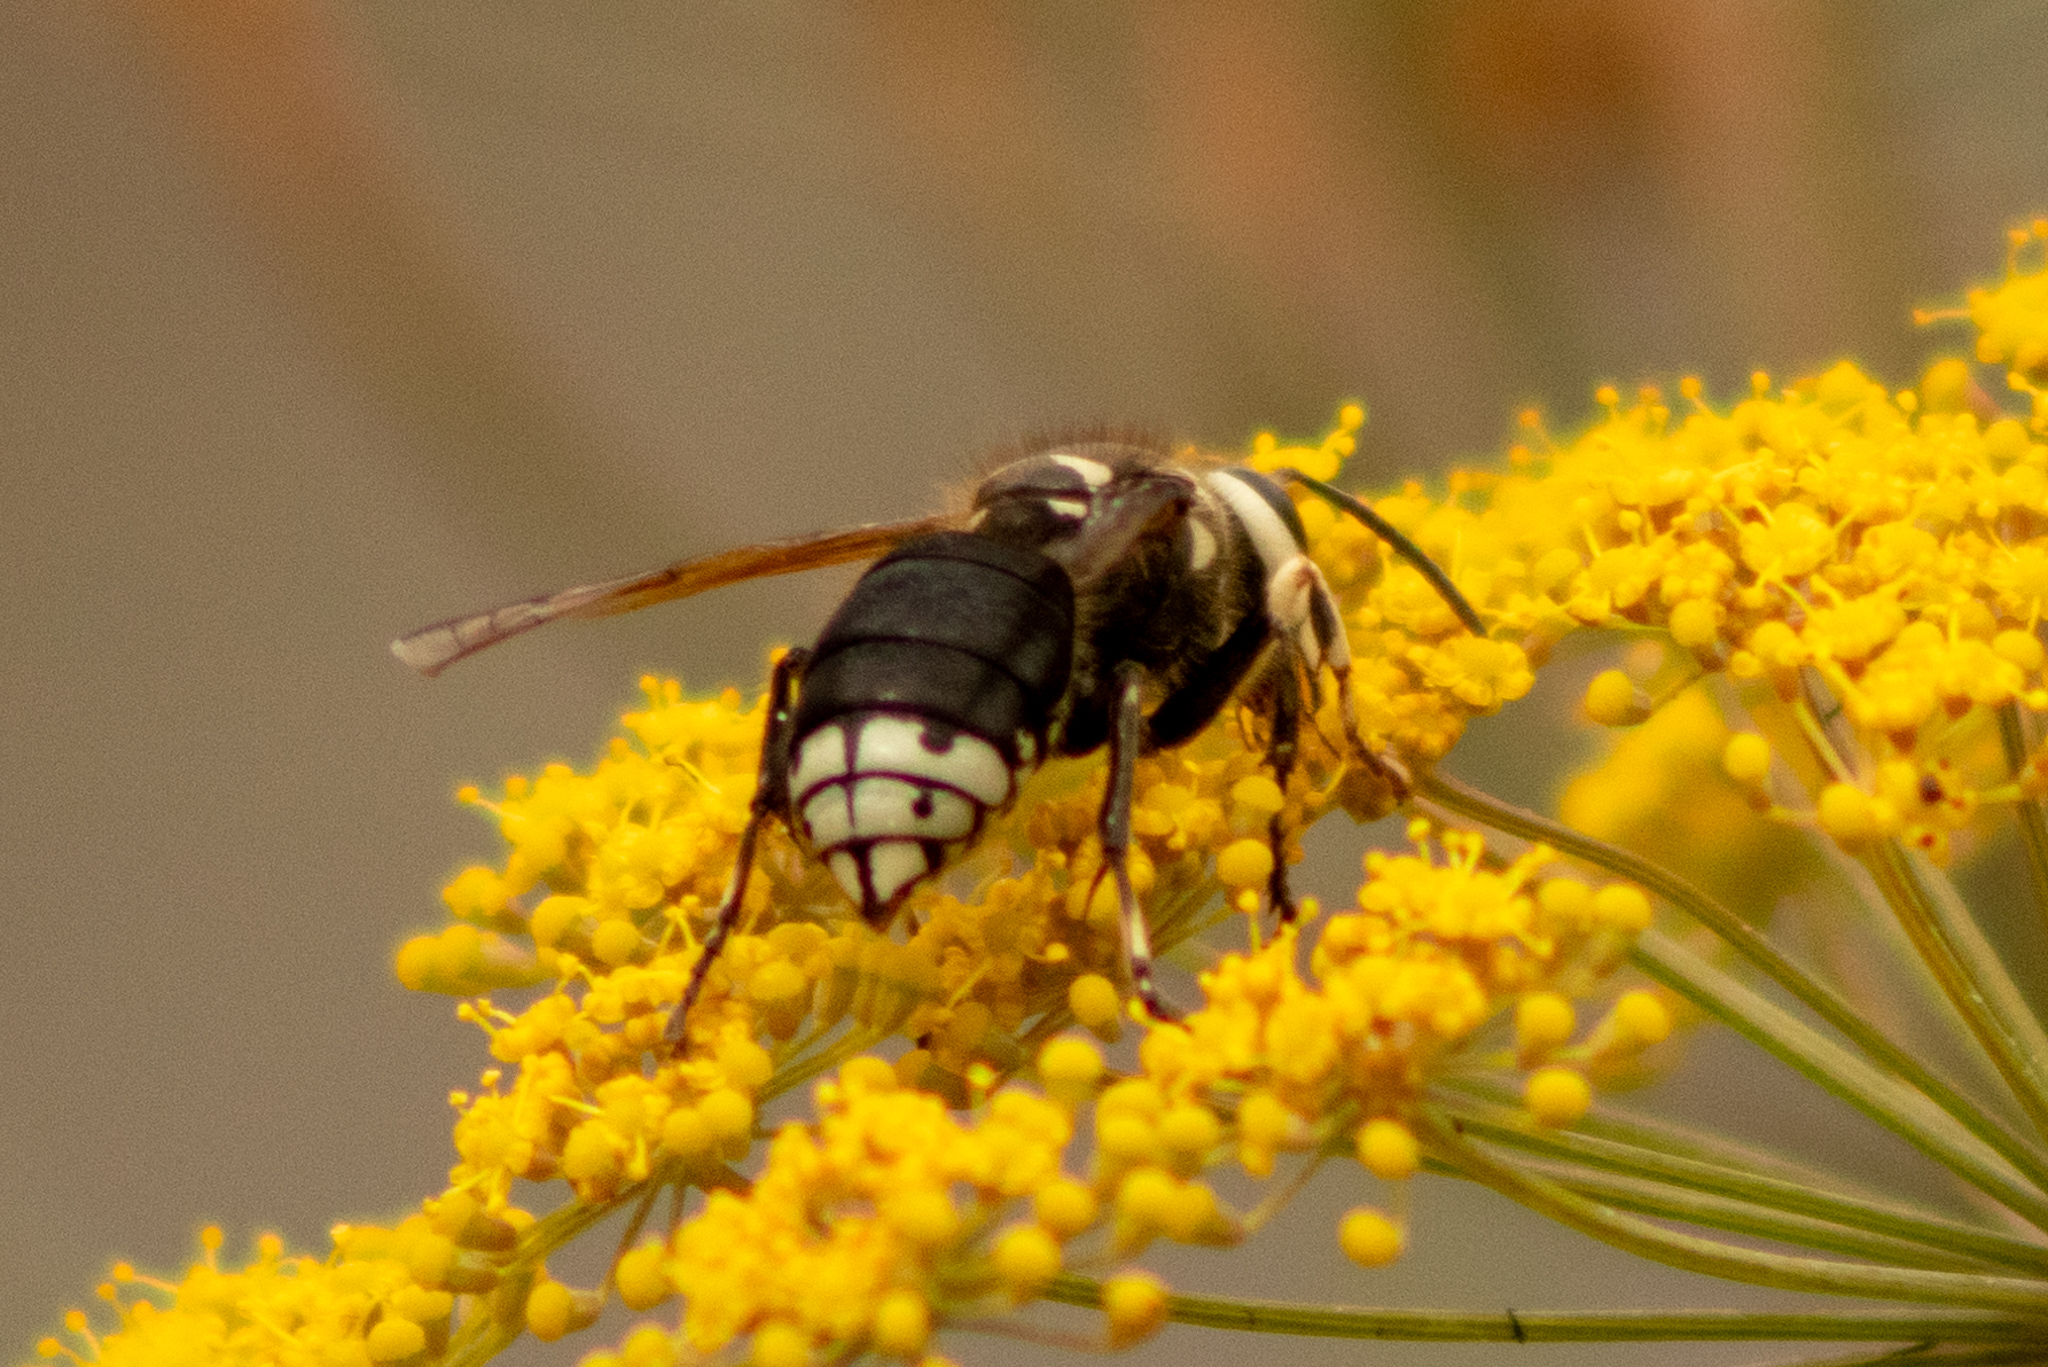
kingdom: Animalia
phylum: Arthropoda
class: Insecta
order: Hymenoptera
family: Vespidae
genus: Dolichovespula
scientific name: Dolichovespula maculata
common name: Bald-faced hornet
